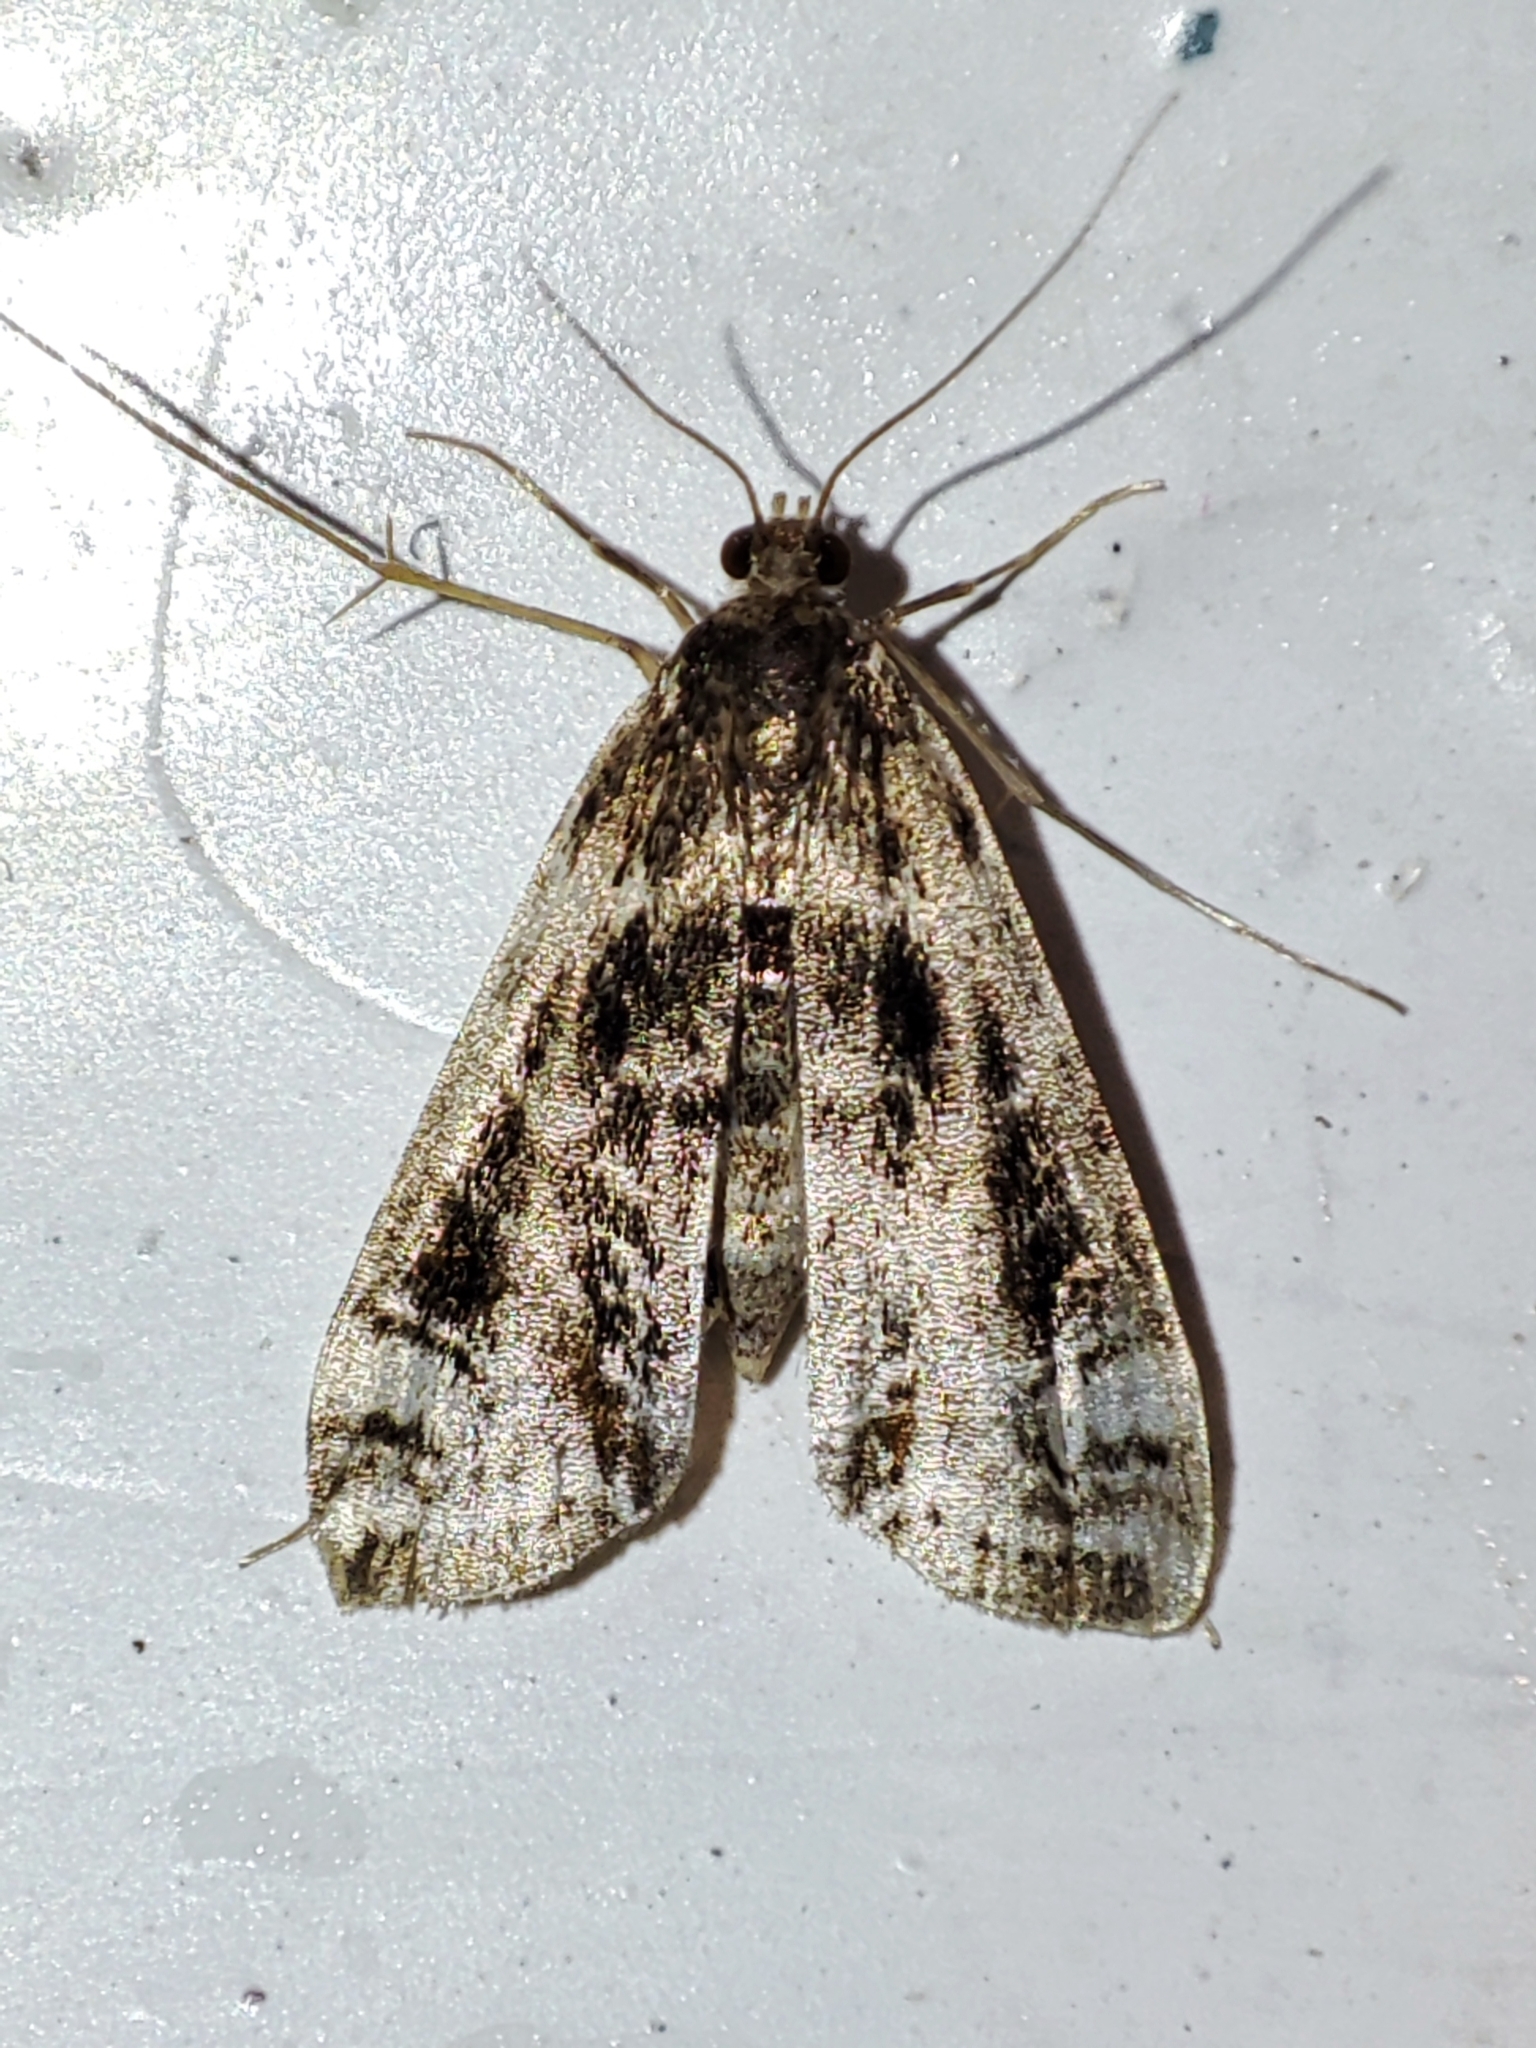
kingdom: Animalia
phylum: Arthropoda
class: Insecta
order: Lepidoptera
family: Crambidae
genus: Cataclysta
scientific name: Cataclysta lemnata
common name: Small china-mark
